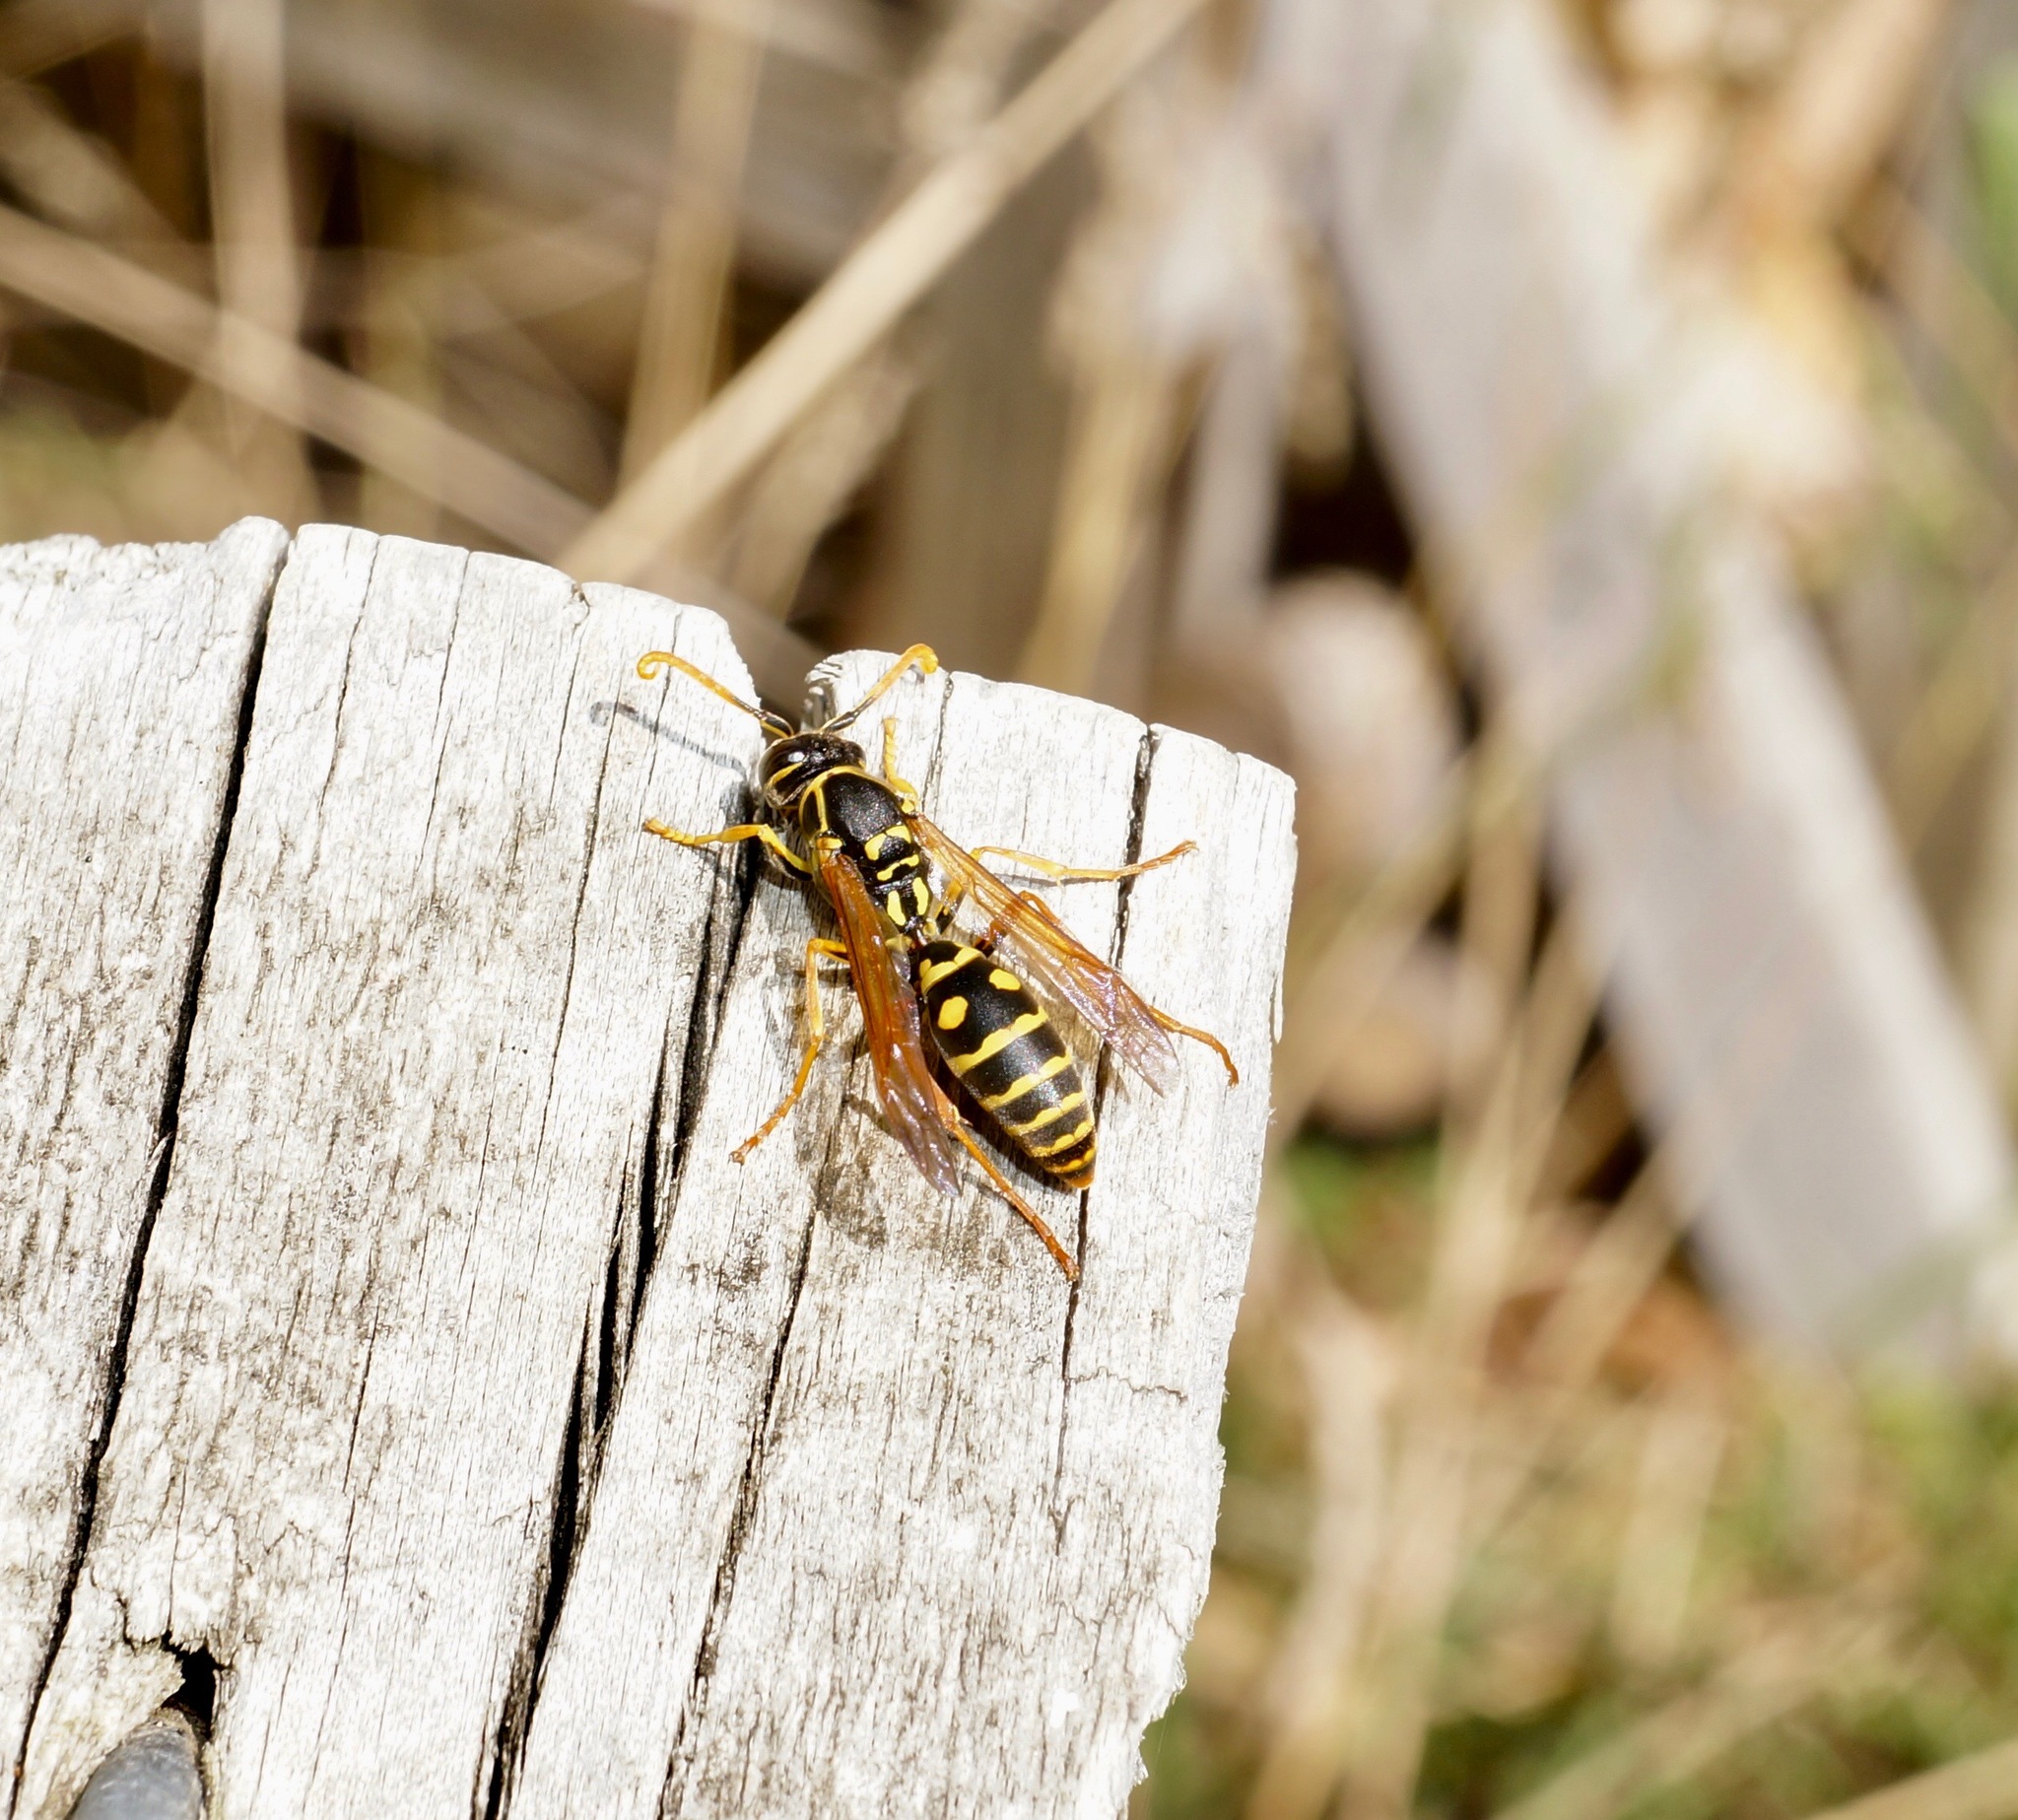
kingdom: Animalia
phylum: Arthropoda
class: Insecta
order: Hymenoptera
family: Eumenidae
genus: Polistes
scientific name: Polistes chinensis
